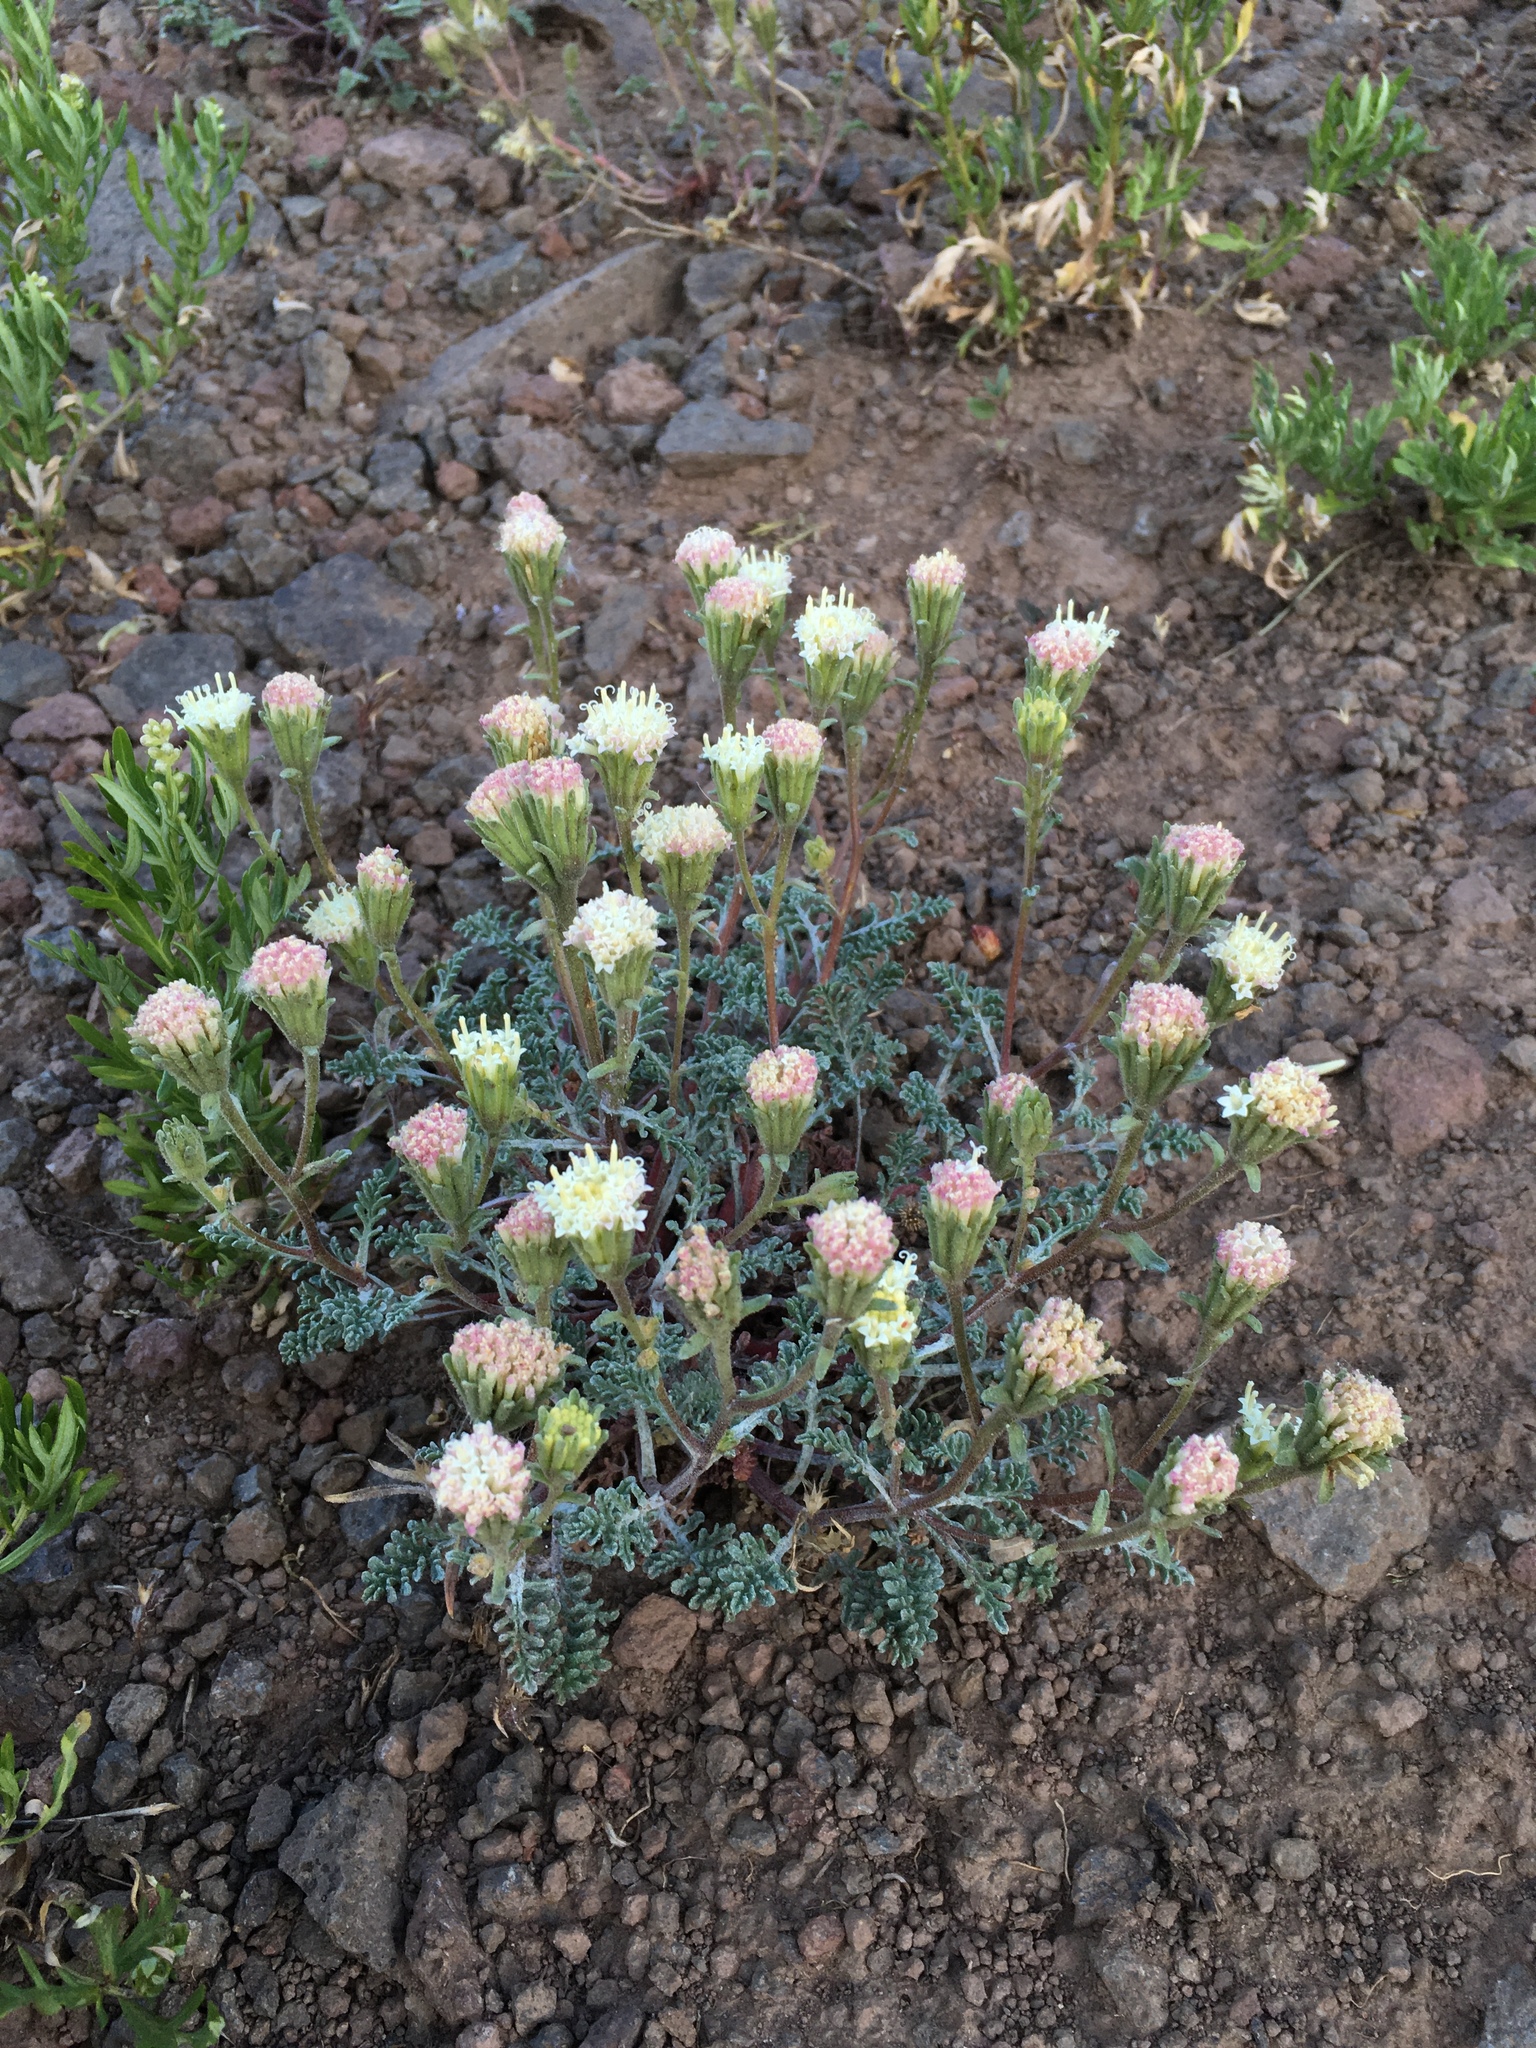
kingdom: Plantae
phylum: Tracheophyta
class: Magnoliopsida
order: Asterales
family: Asteraceae
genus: Chaenactis
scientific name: Chaenactis douglasii
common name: Hoary pincushion
